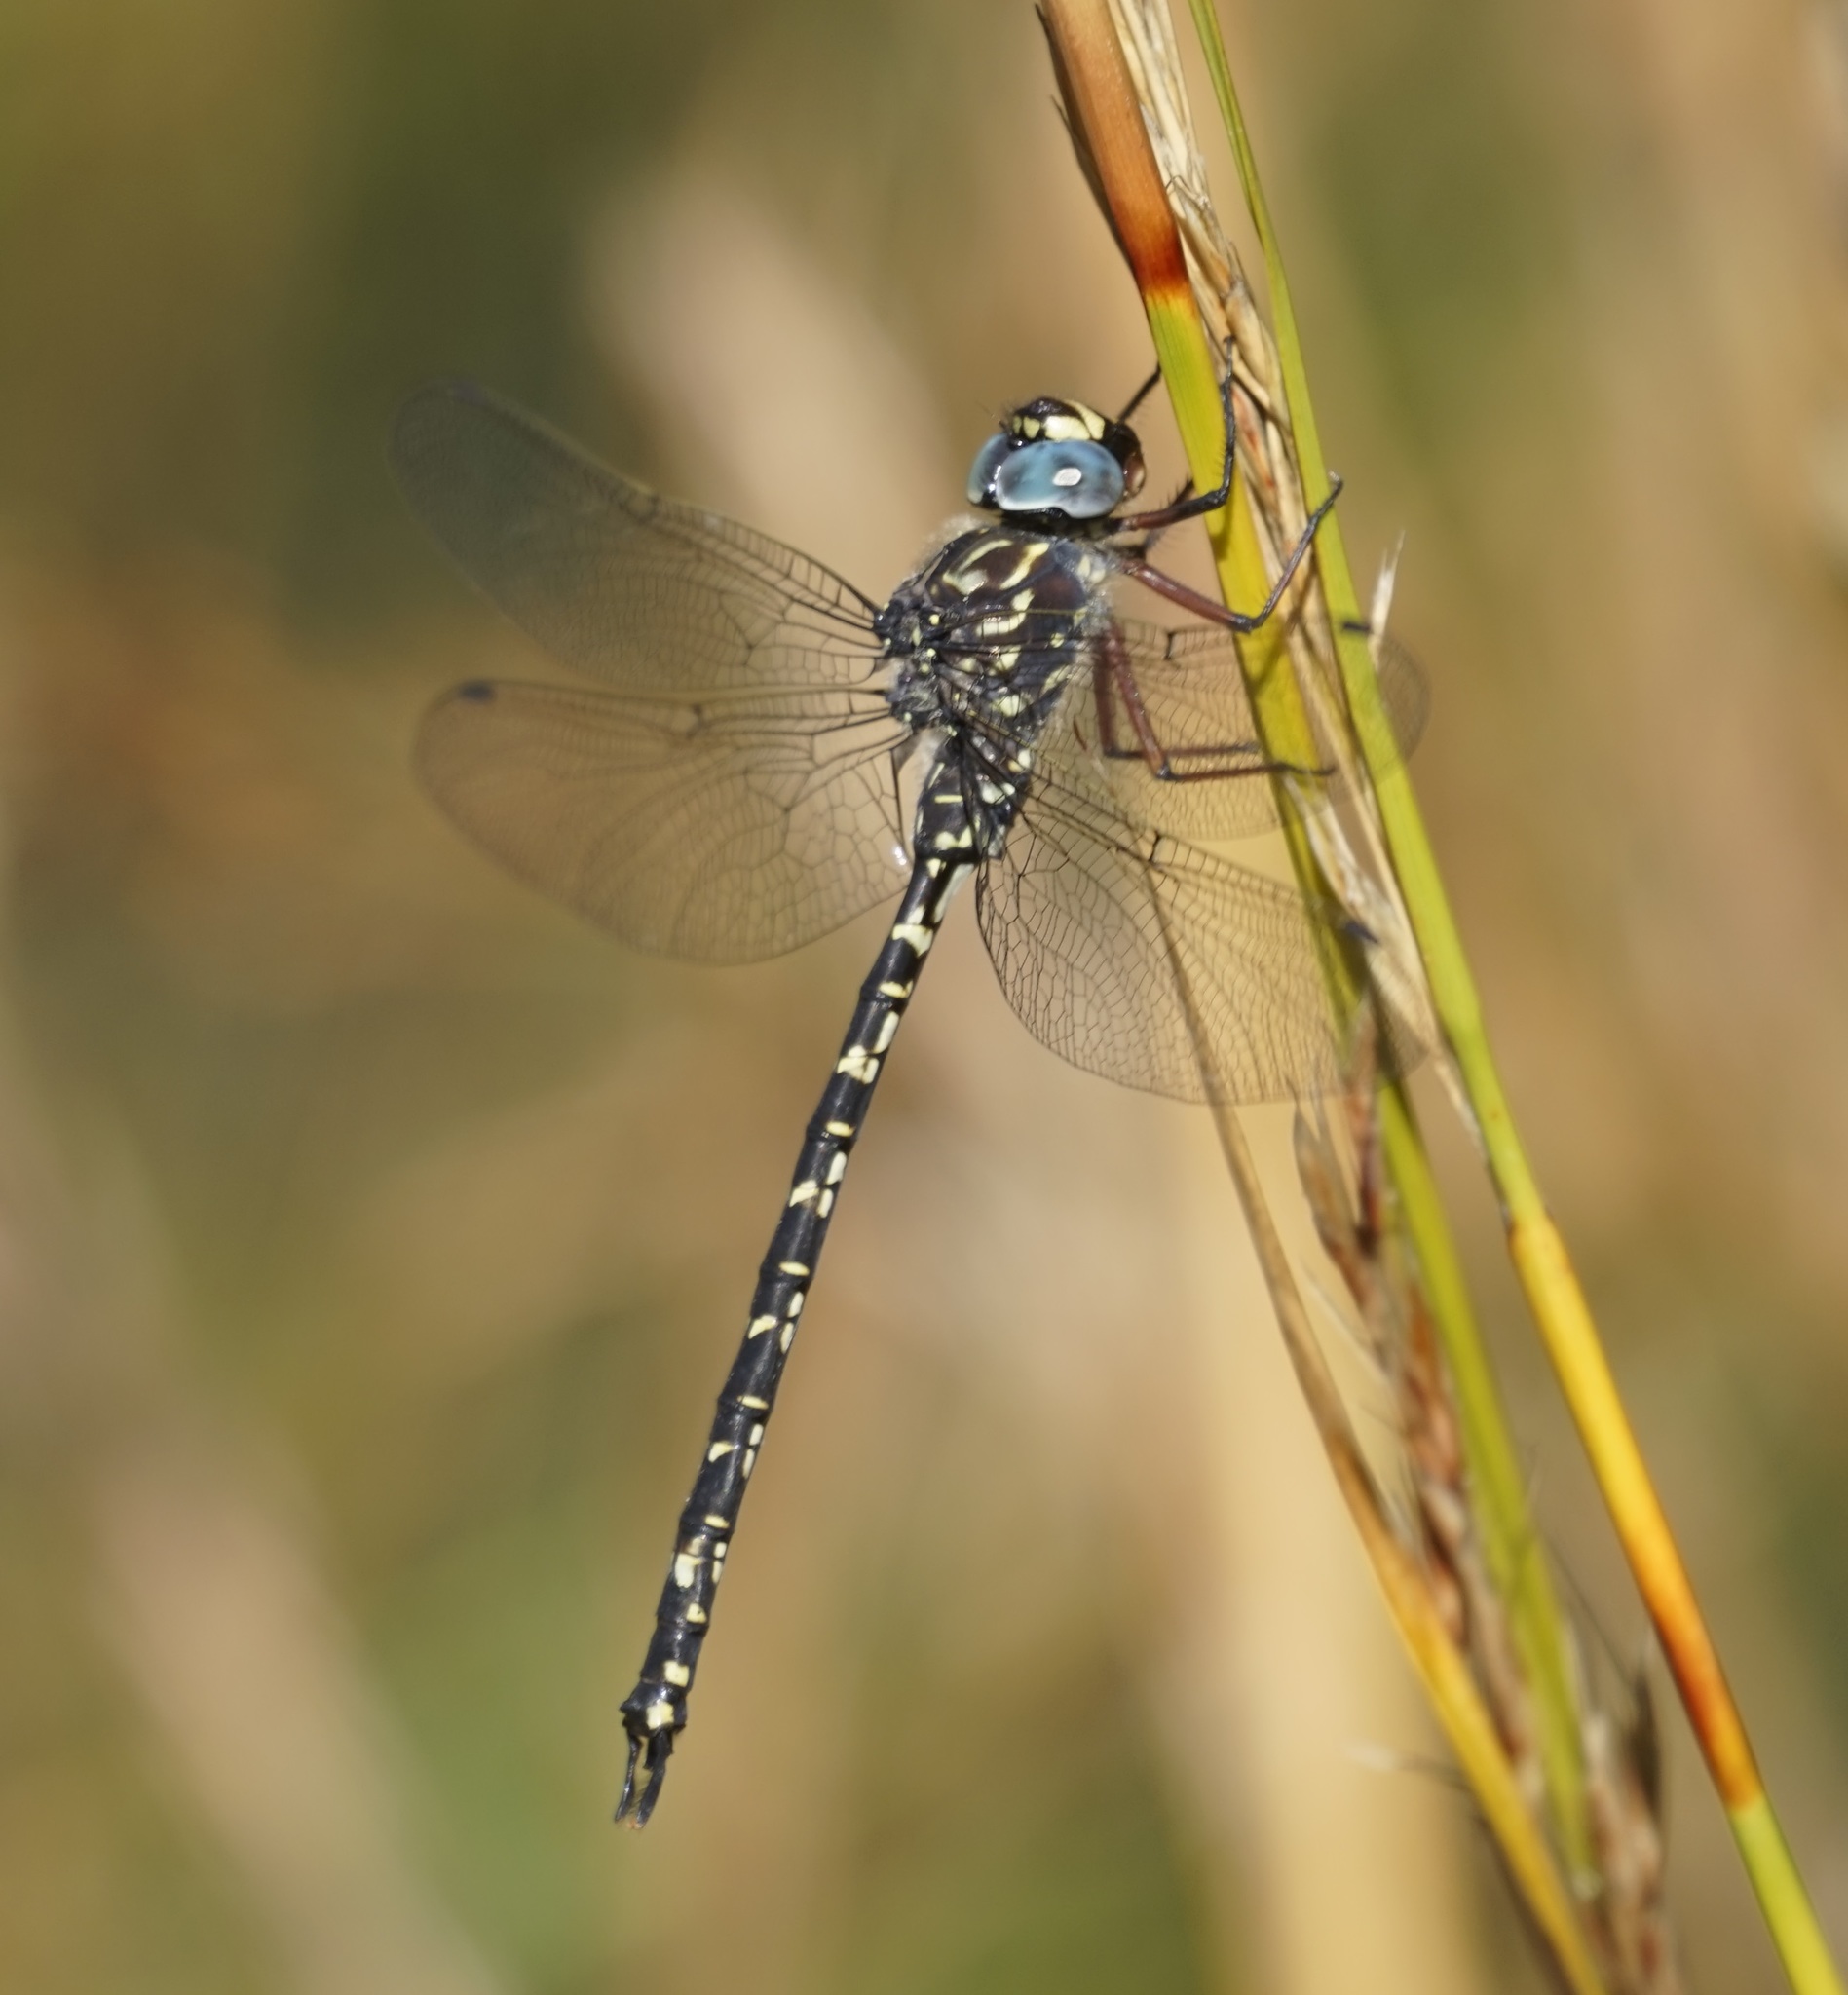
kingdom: Animalia
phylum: Arthropoda
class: Insecta
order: Odonata
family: Aeshnidae
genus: Austroaeschna
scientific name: Austroaeschna obscura
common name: Sydney mountain darner
